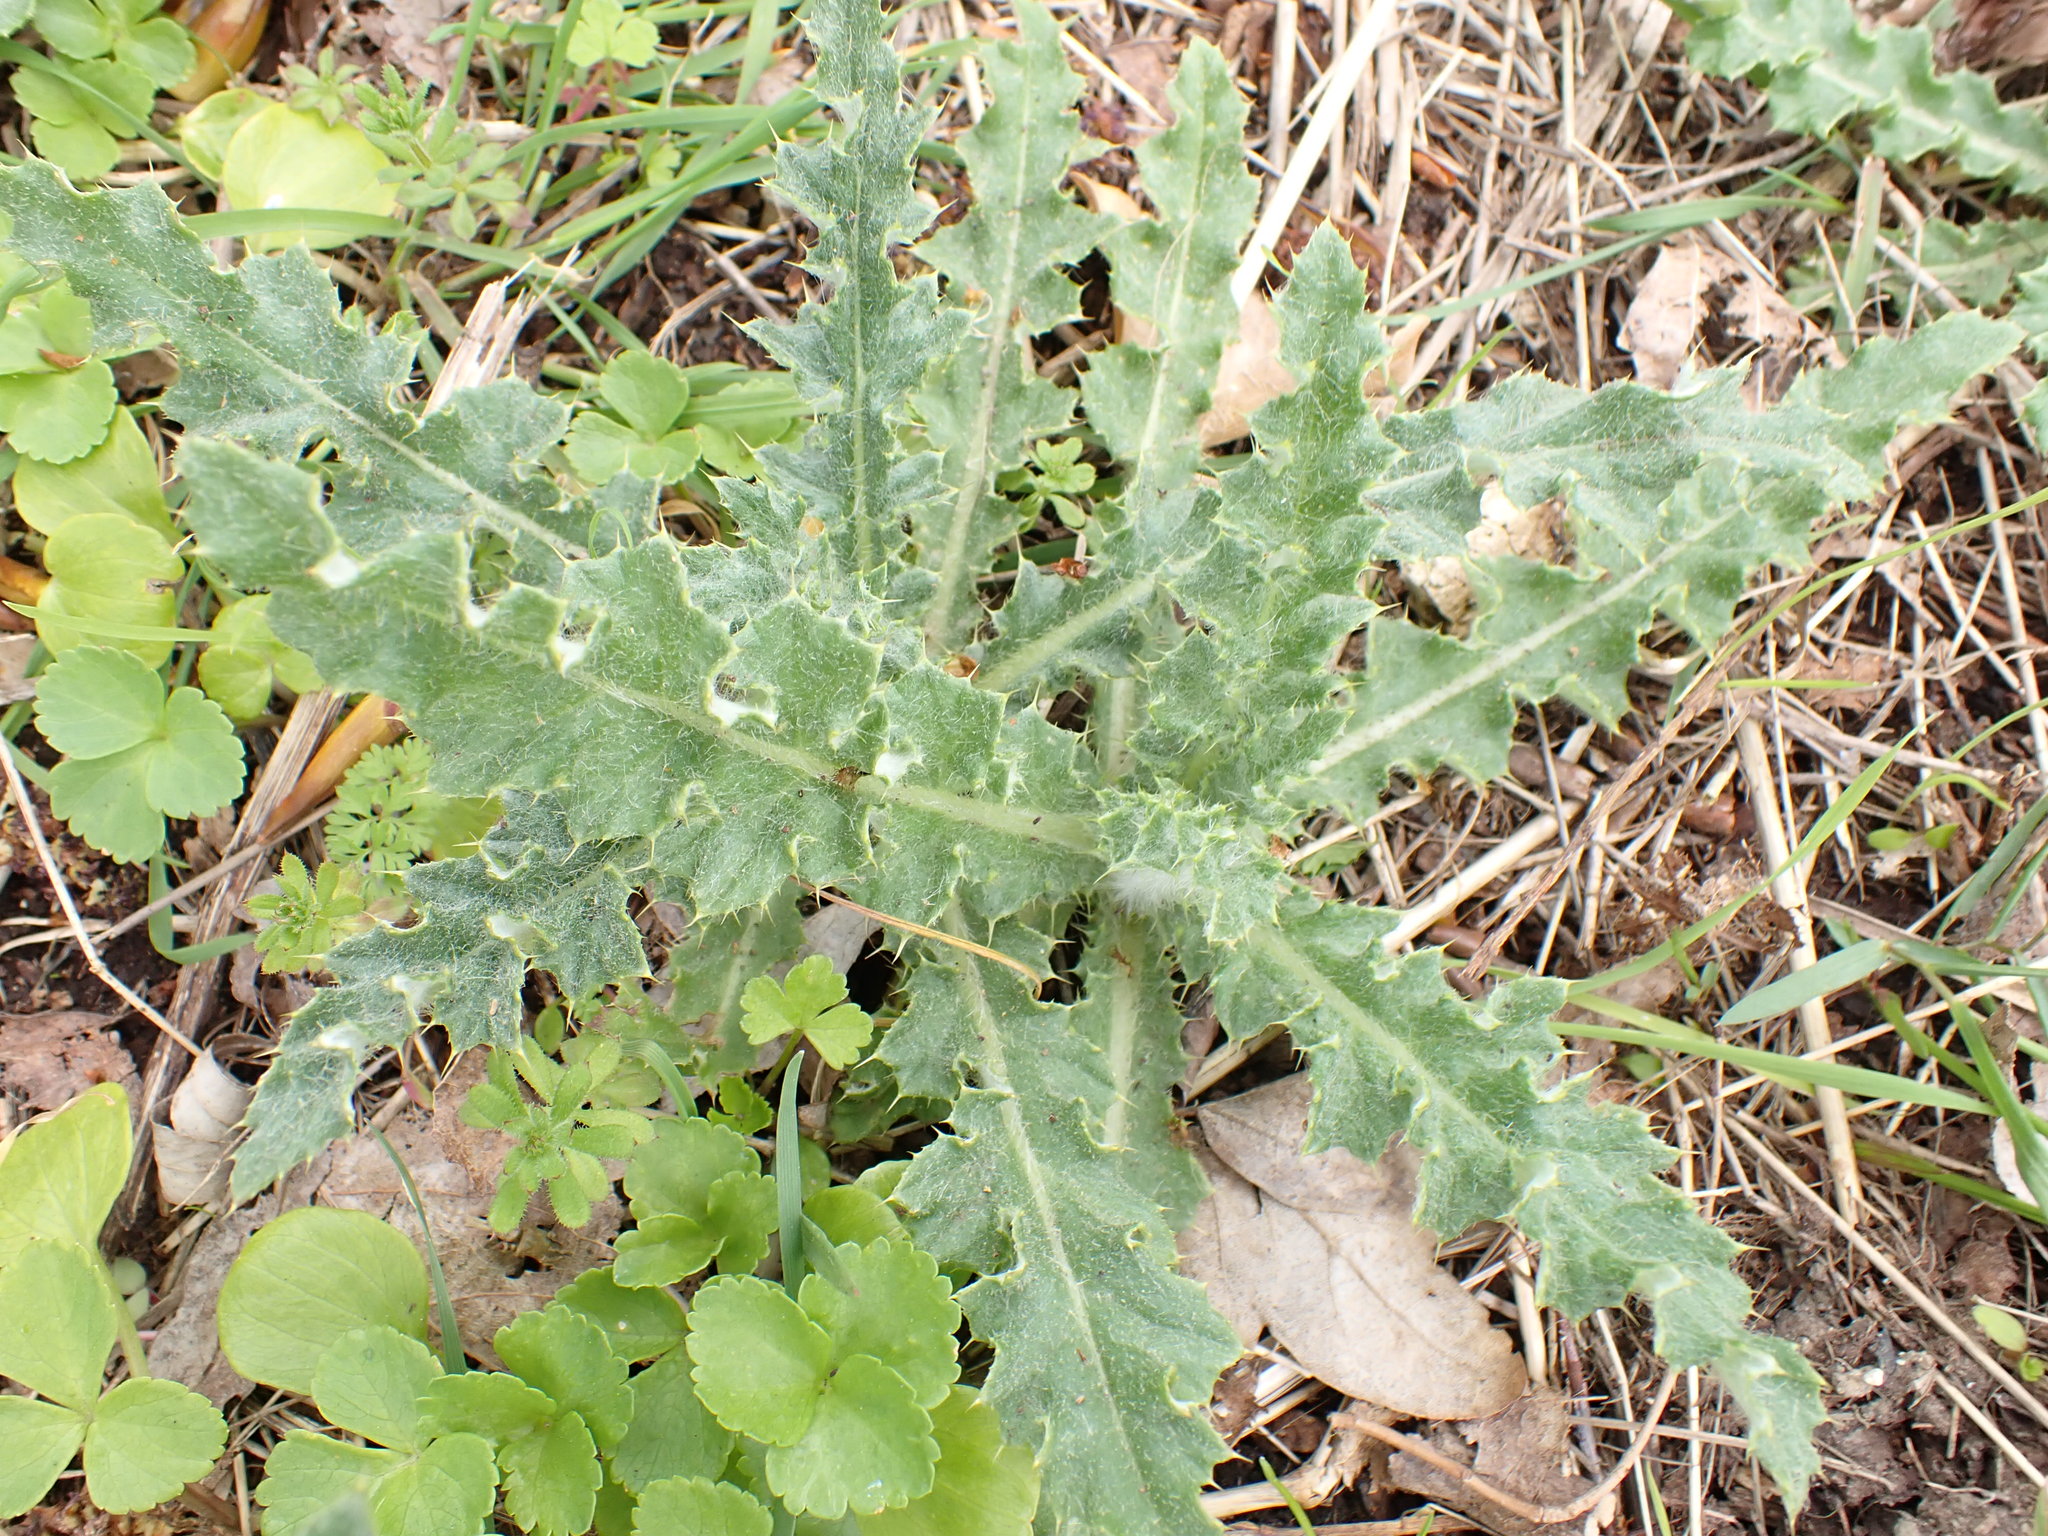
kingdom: Plantae
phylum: Tracheophyta
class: Magnoliopsida
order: Asterales
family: Asteraceae
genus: Cirsium
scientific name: Cirsium arvense
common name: Creeping thistle
